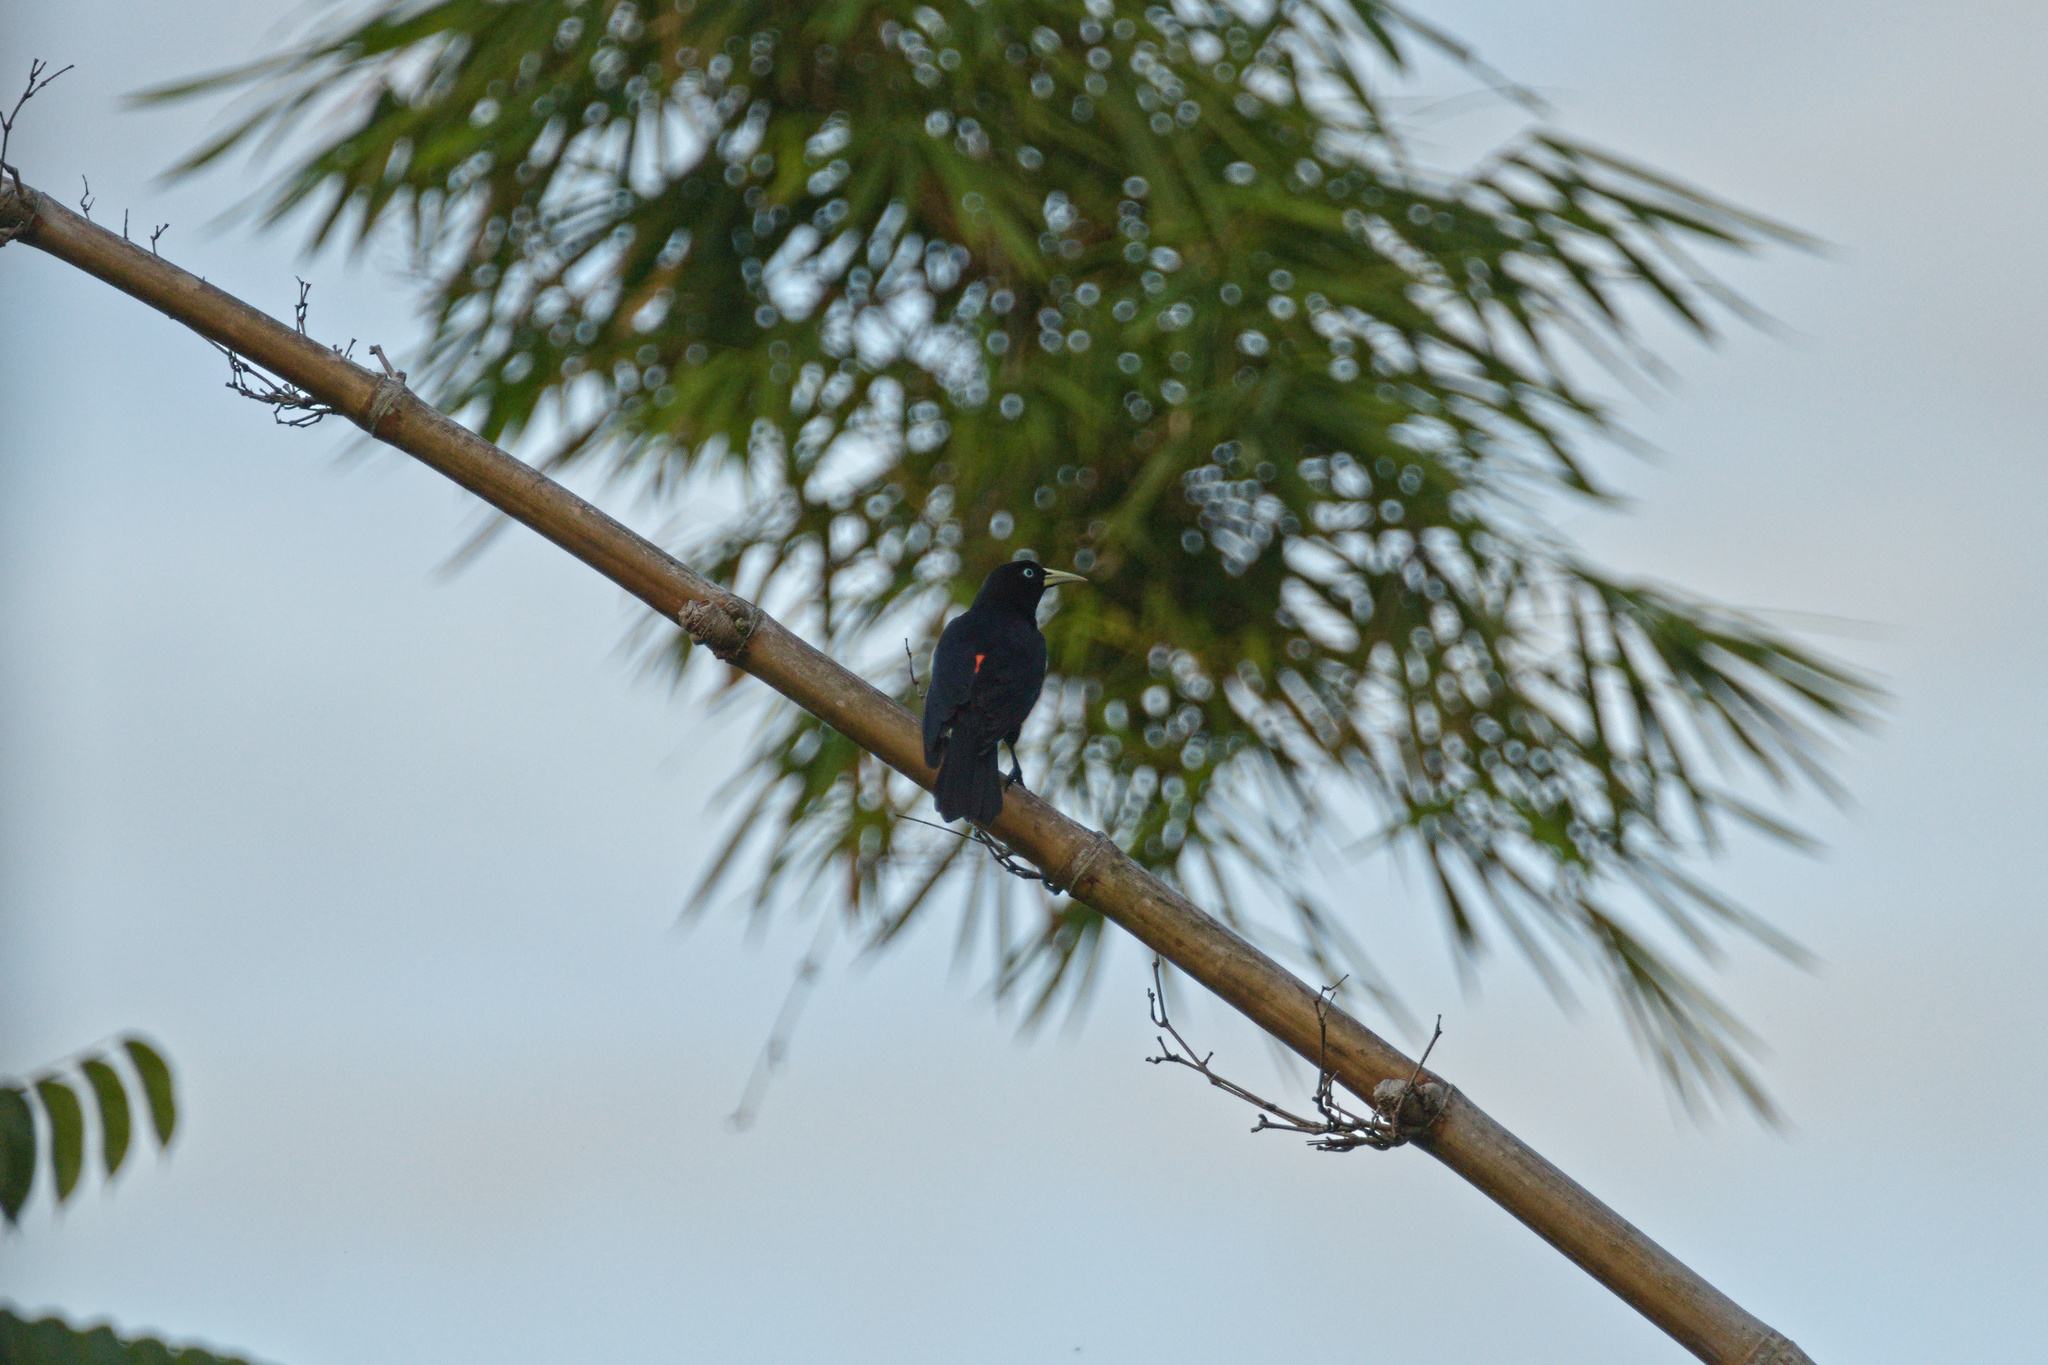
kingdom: Animalia
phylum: Chordata
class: Aves
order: Passeriformes
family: Icteridae
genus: Cacicus
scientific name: Cacicus uropygialis
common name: Scarlet-rumped cacique
